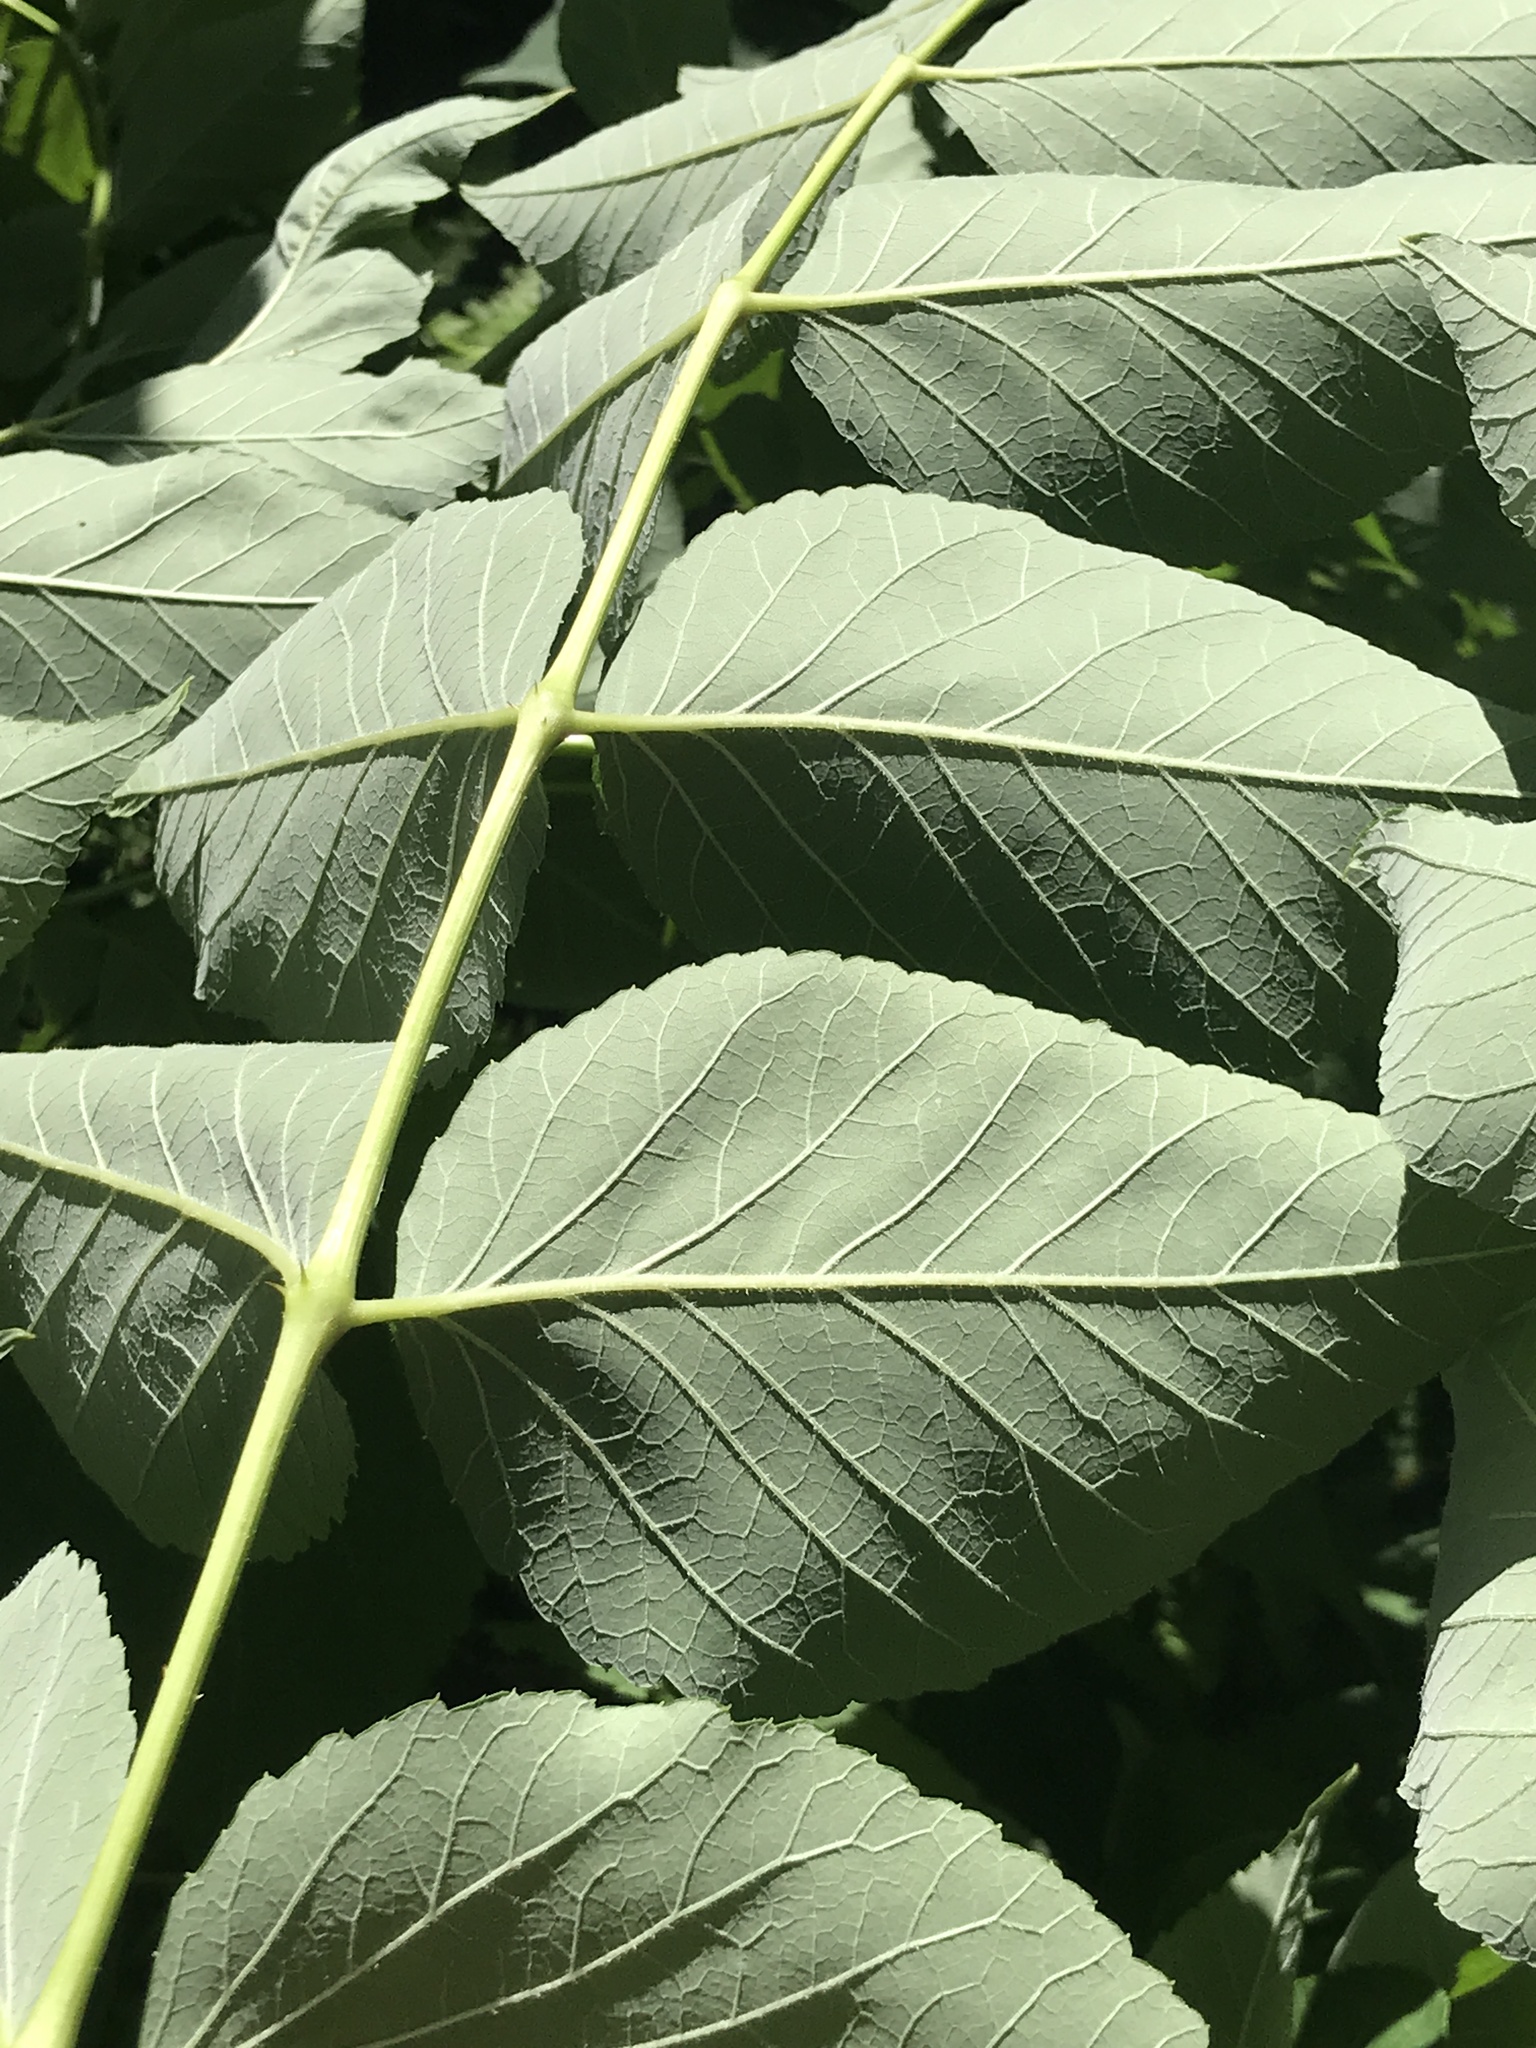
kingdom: Plantae
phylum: Tracheophyta
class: Magnoliopsida
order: Apiales
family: Araliaceae
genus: Aralia
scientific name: Aralia elata
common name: Japanese angelica-tree
